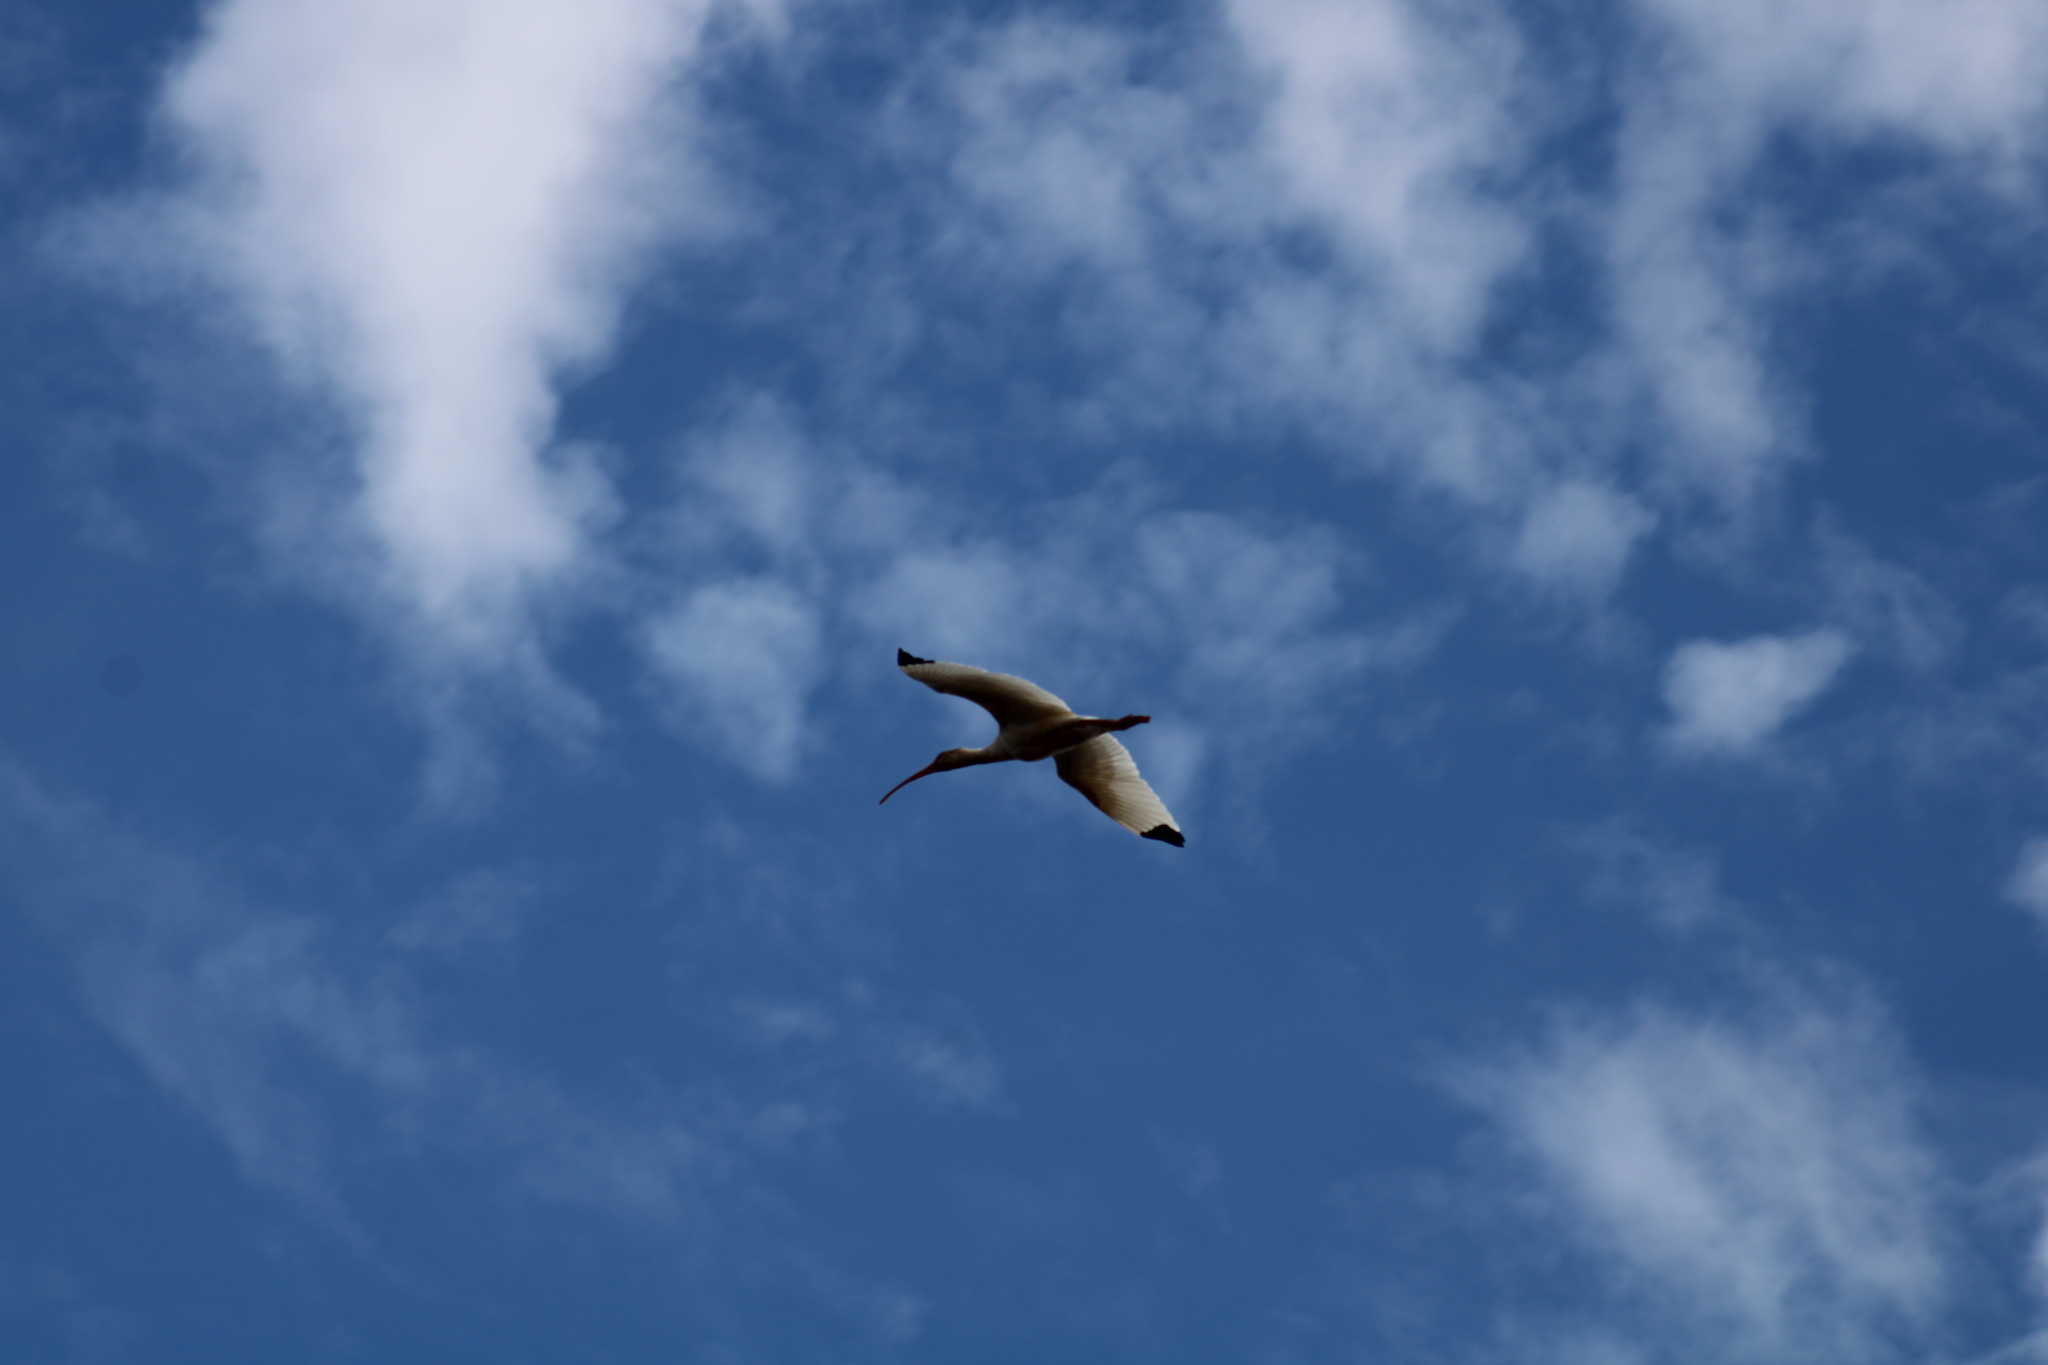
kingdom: Animalia
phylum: Chordata
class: Aves
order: Pelecaniformes
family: Threskiornithidae
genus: Eudocimus
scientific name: Eudocimus albus
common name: White ibis
